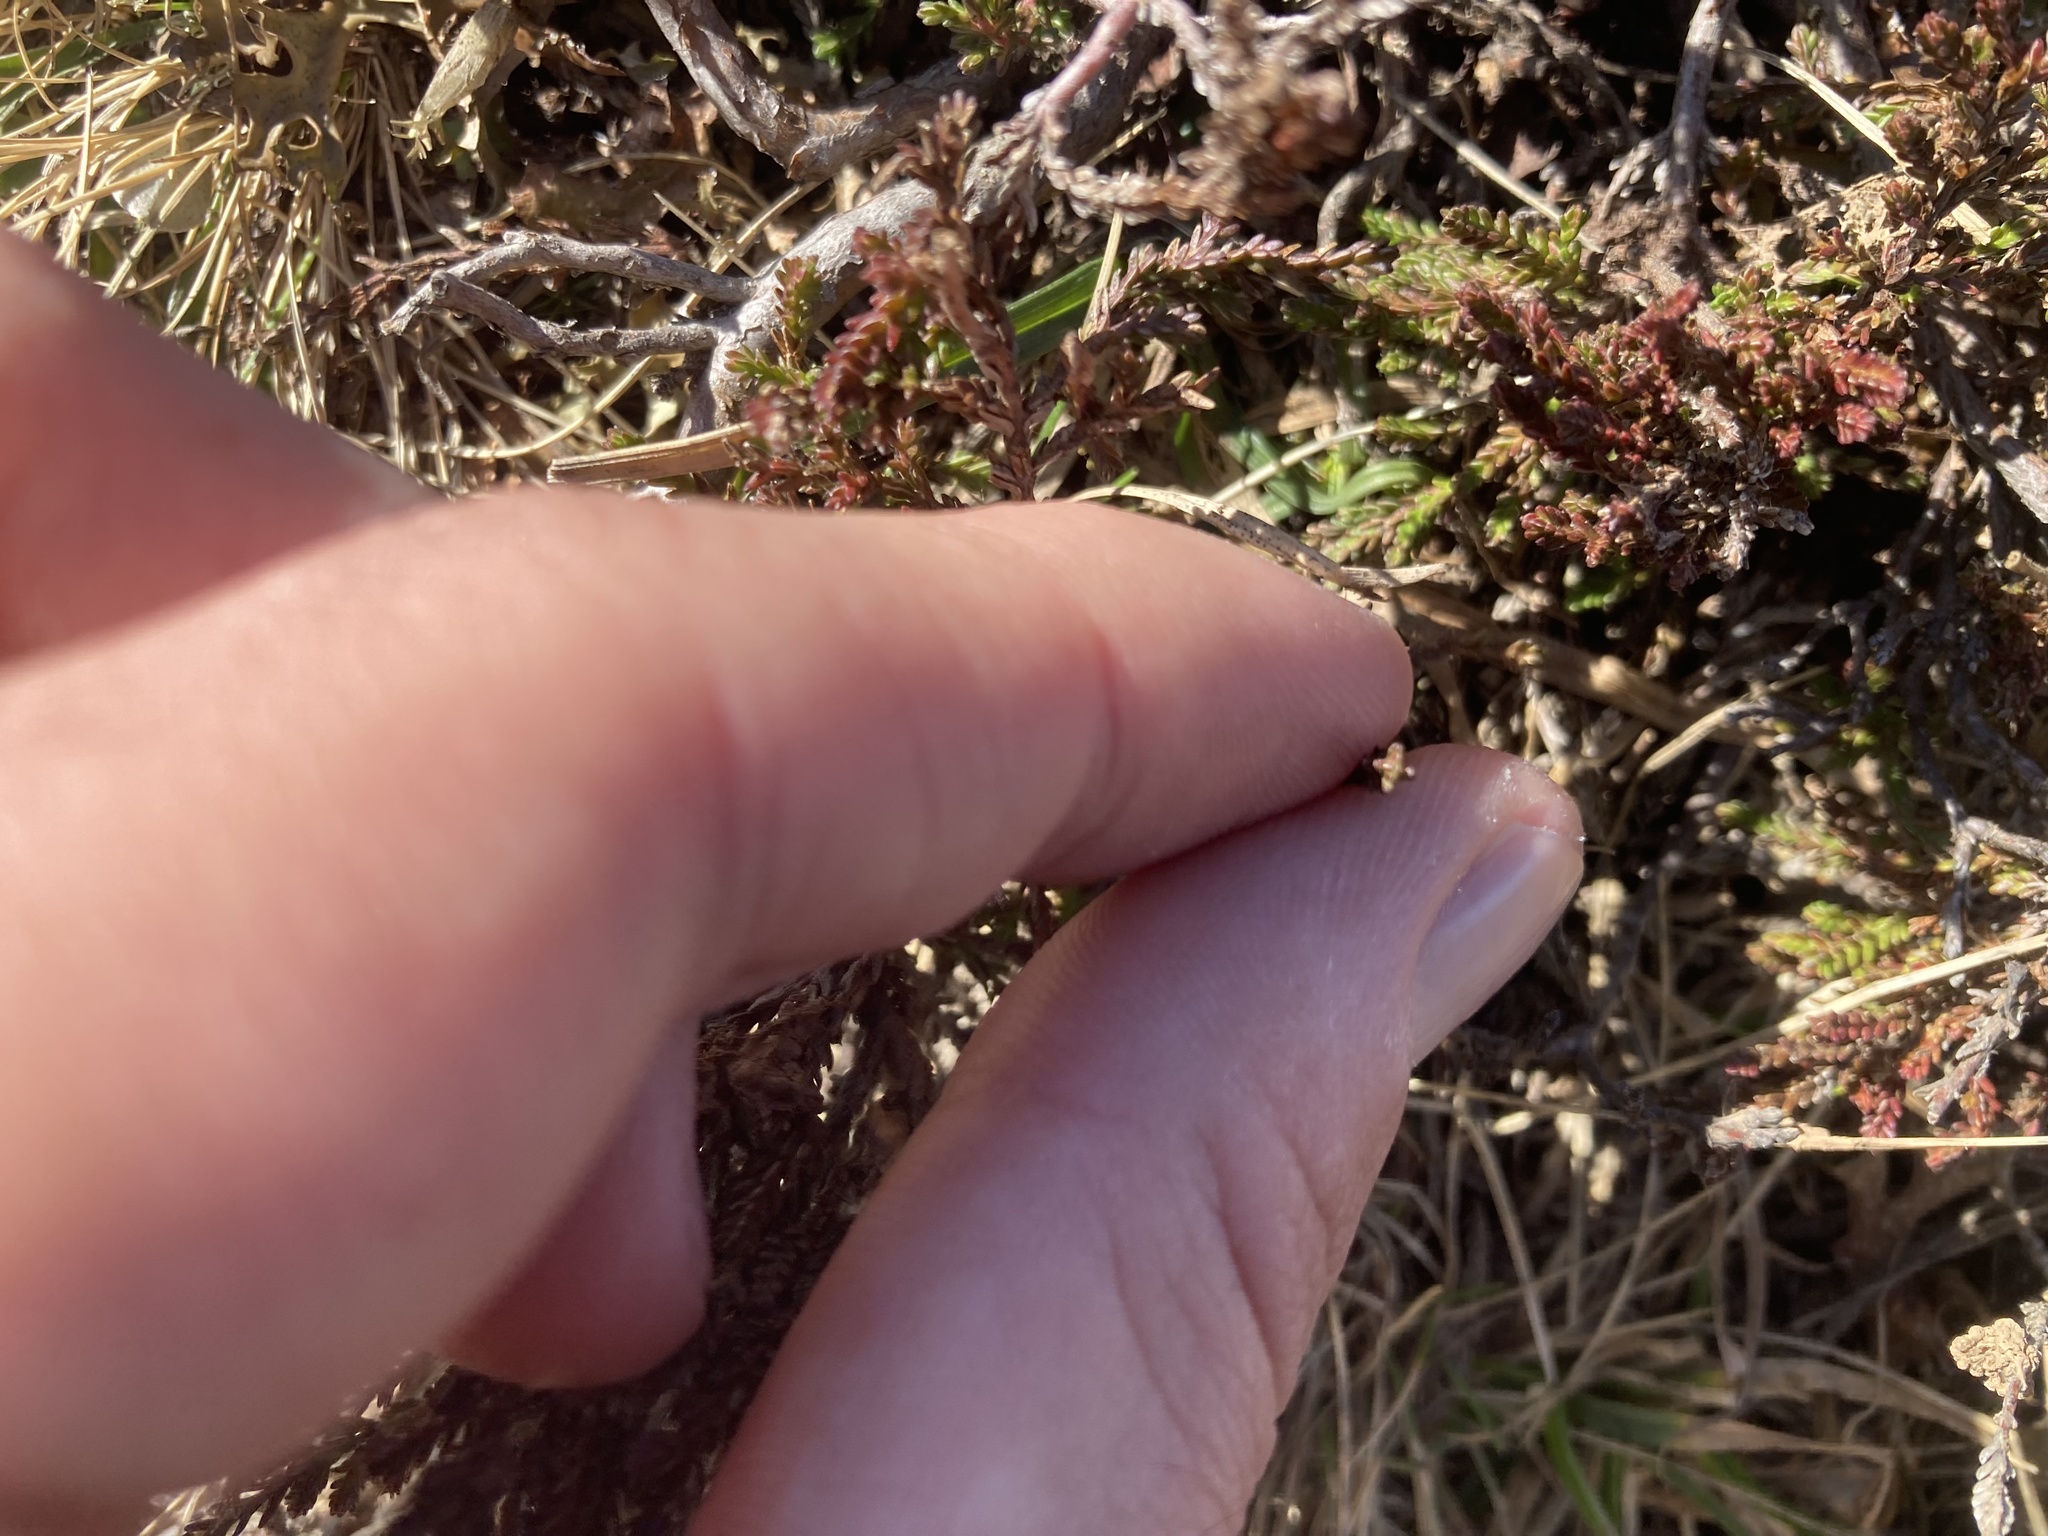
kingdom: Plantae
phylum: Tracheophyta
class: Magnoliopsida
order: Ericales
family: Ericaceae
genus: Calluna
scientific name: Calluna vulgaris
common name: Heather
